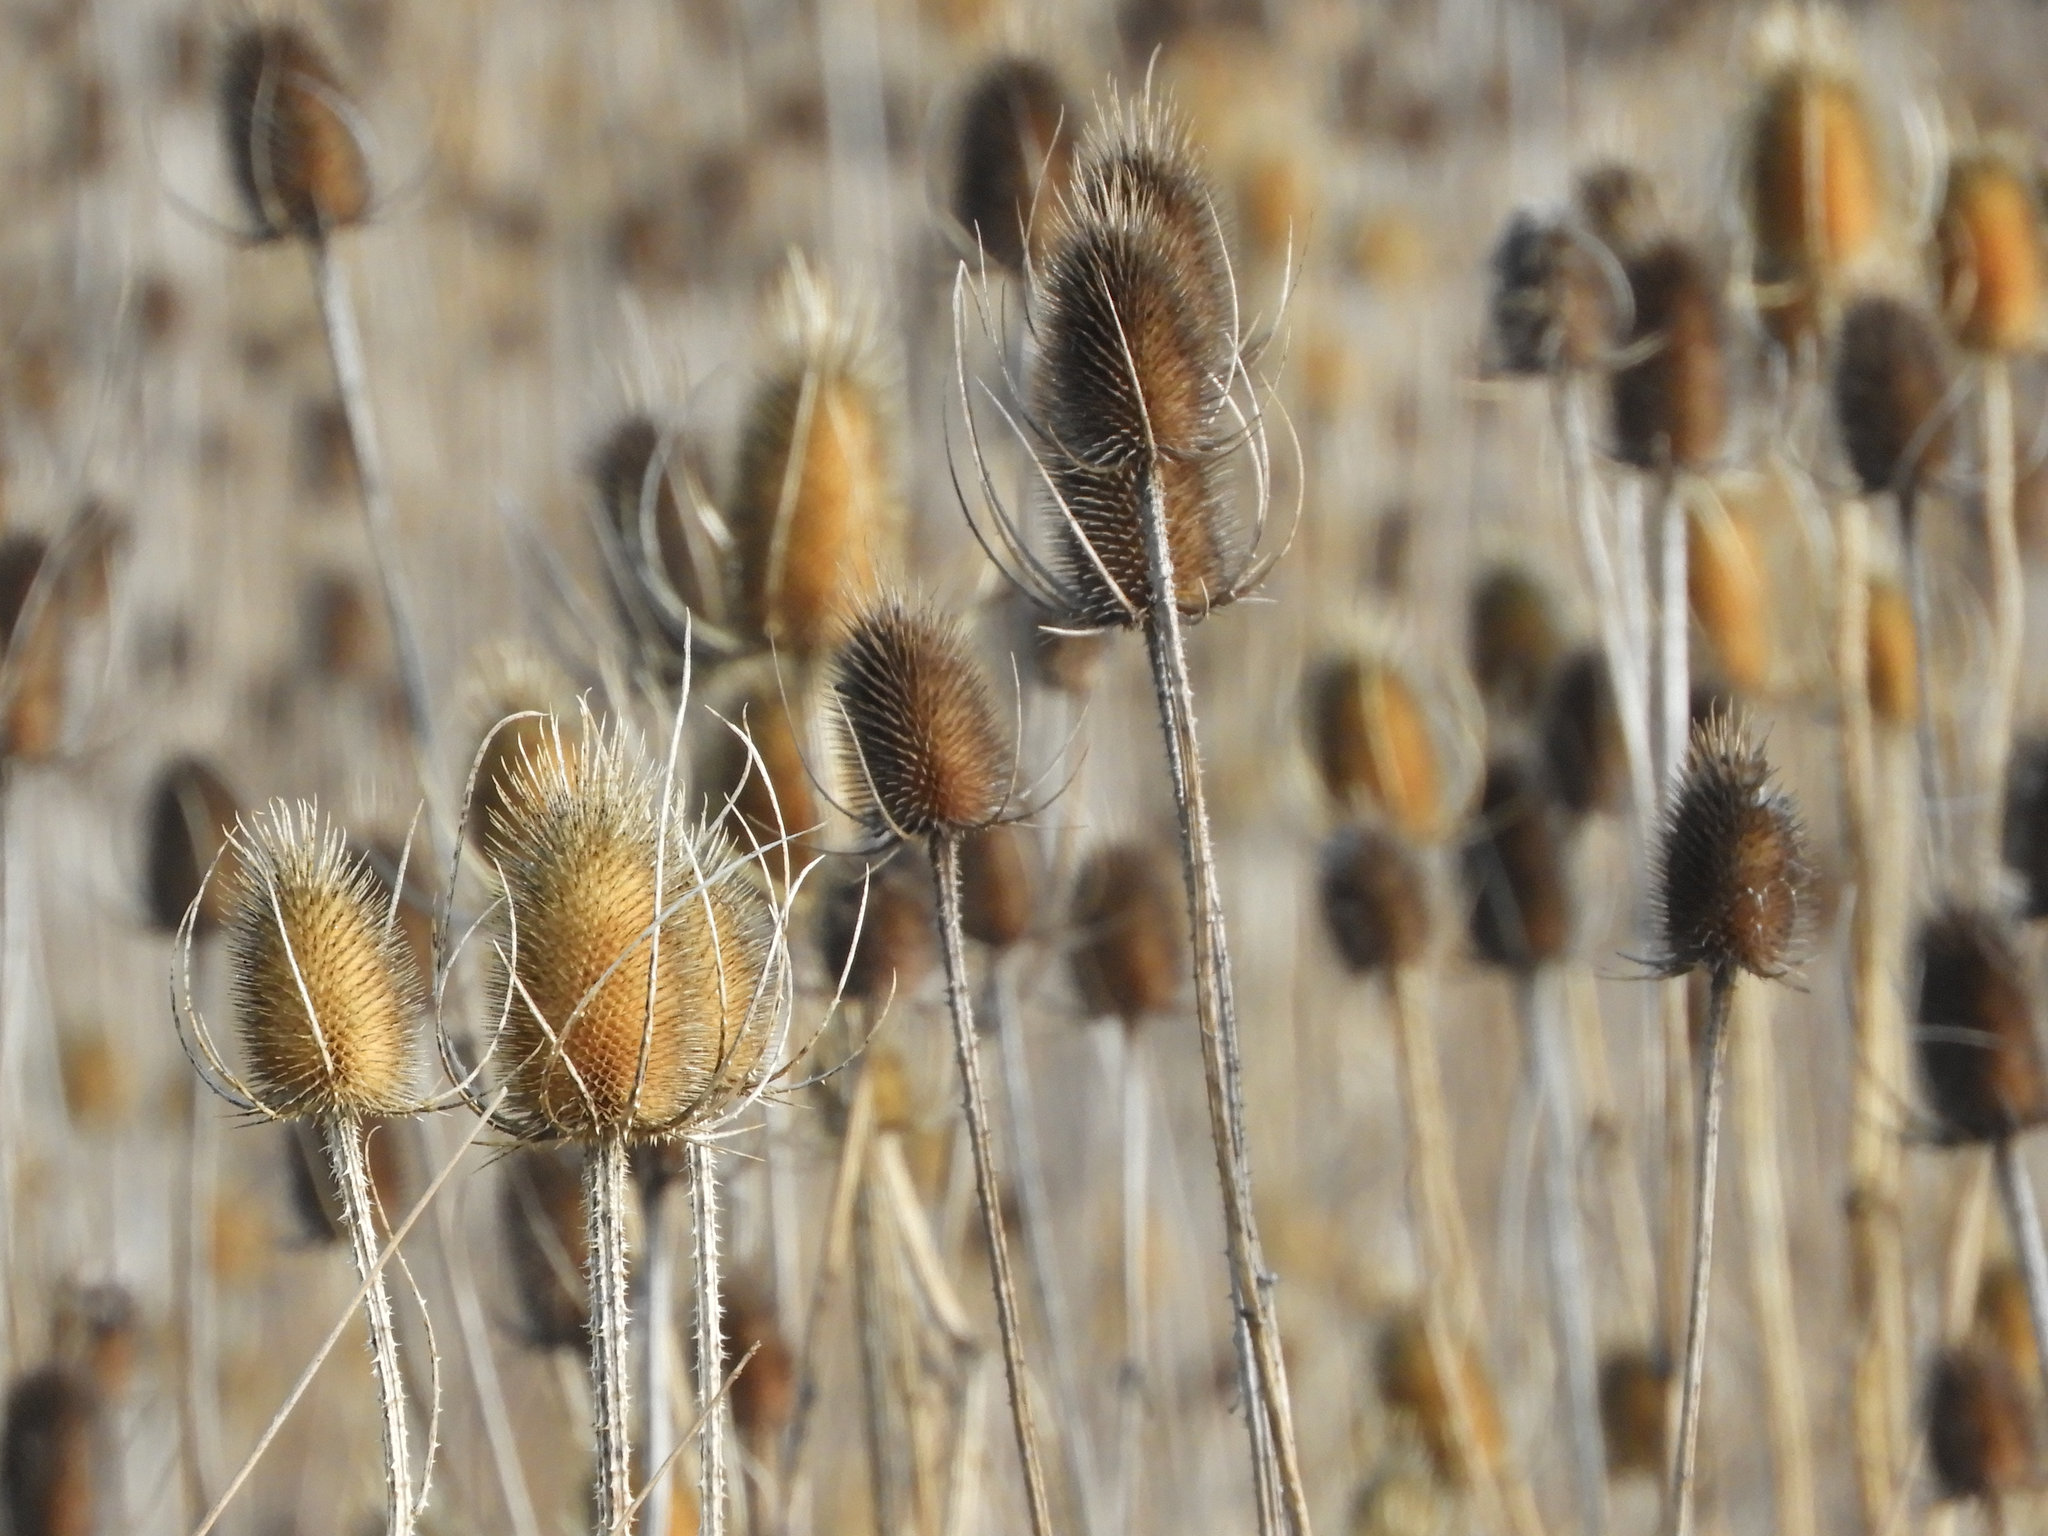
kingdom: Plantae
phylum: Tracheophyta
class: Magnoliopsida
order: Dipsacales
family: Caprifoliaceae
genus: Dipsacus
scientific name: Dipsacus fullonum
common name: Teasel
